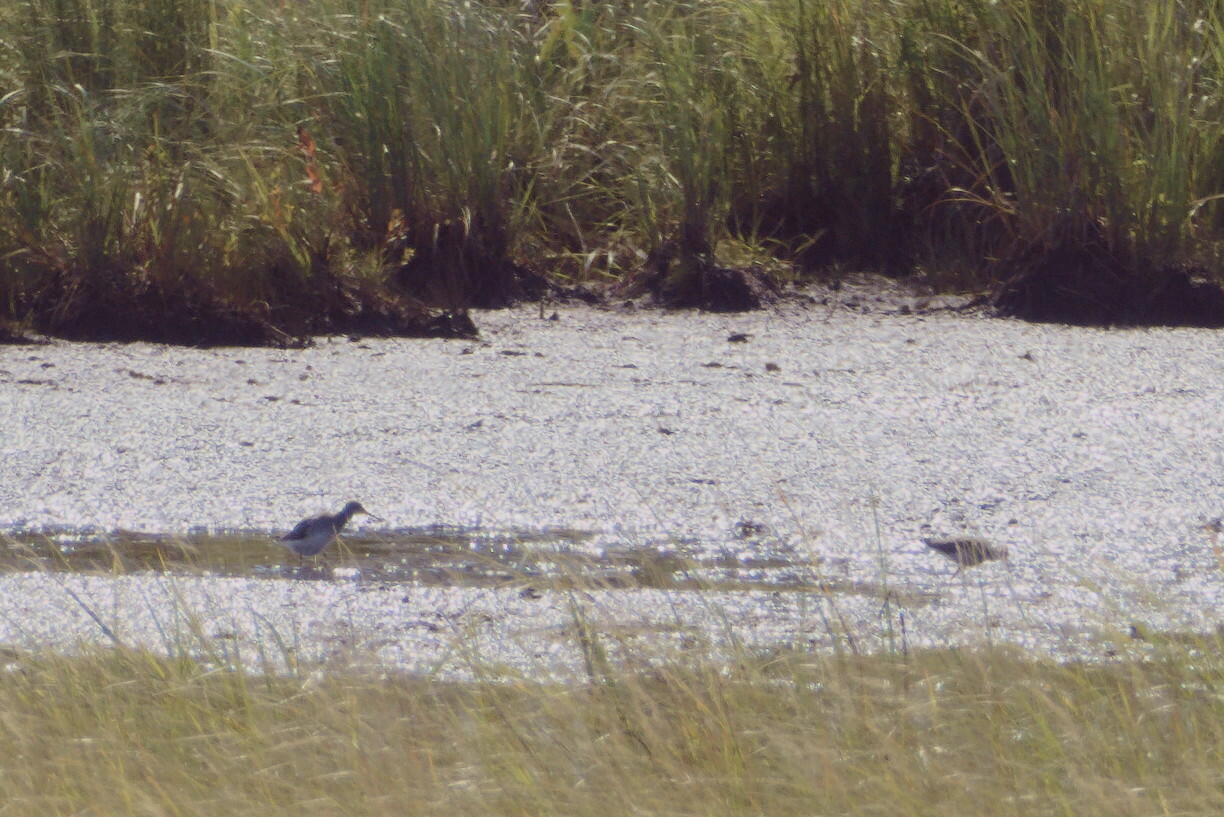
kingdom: Animalia
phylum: Chordata
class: Aves
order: Charadriiformes
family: Scolopacidae
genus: Tringa
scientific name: Tringa melanoleuca
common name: Greater yellowlegs
